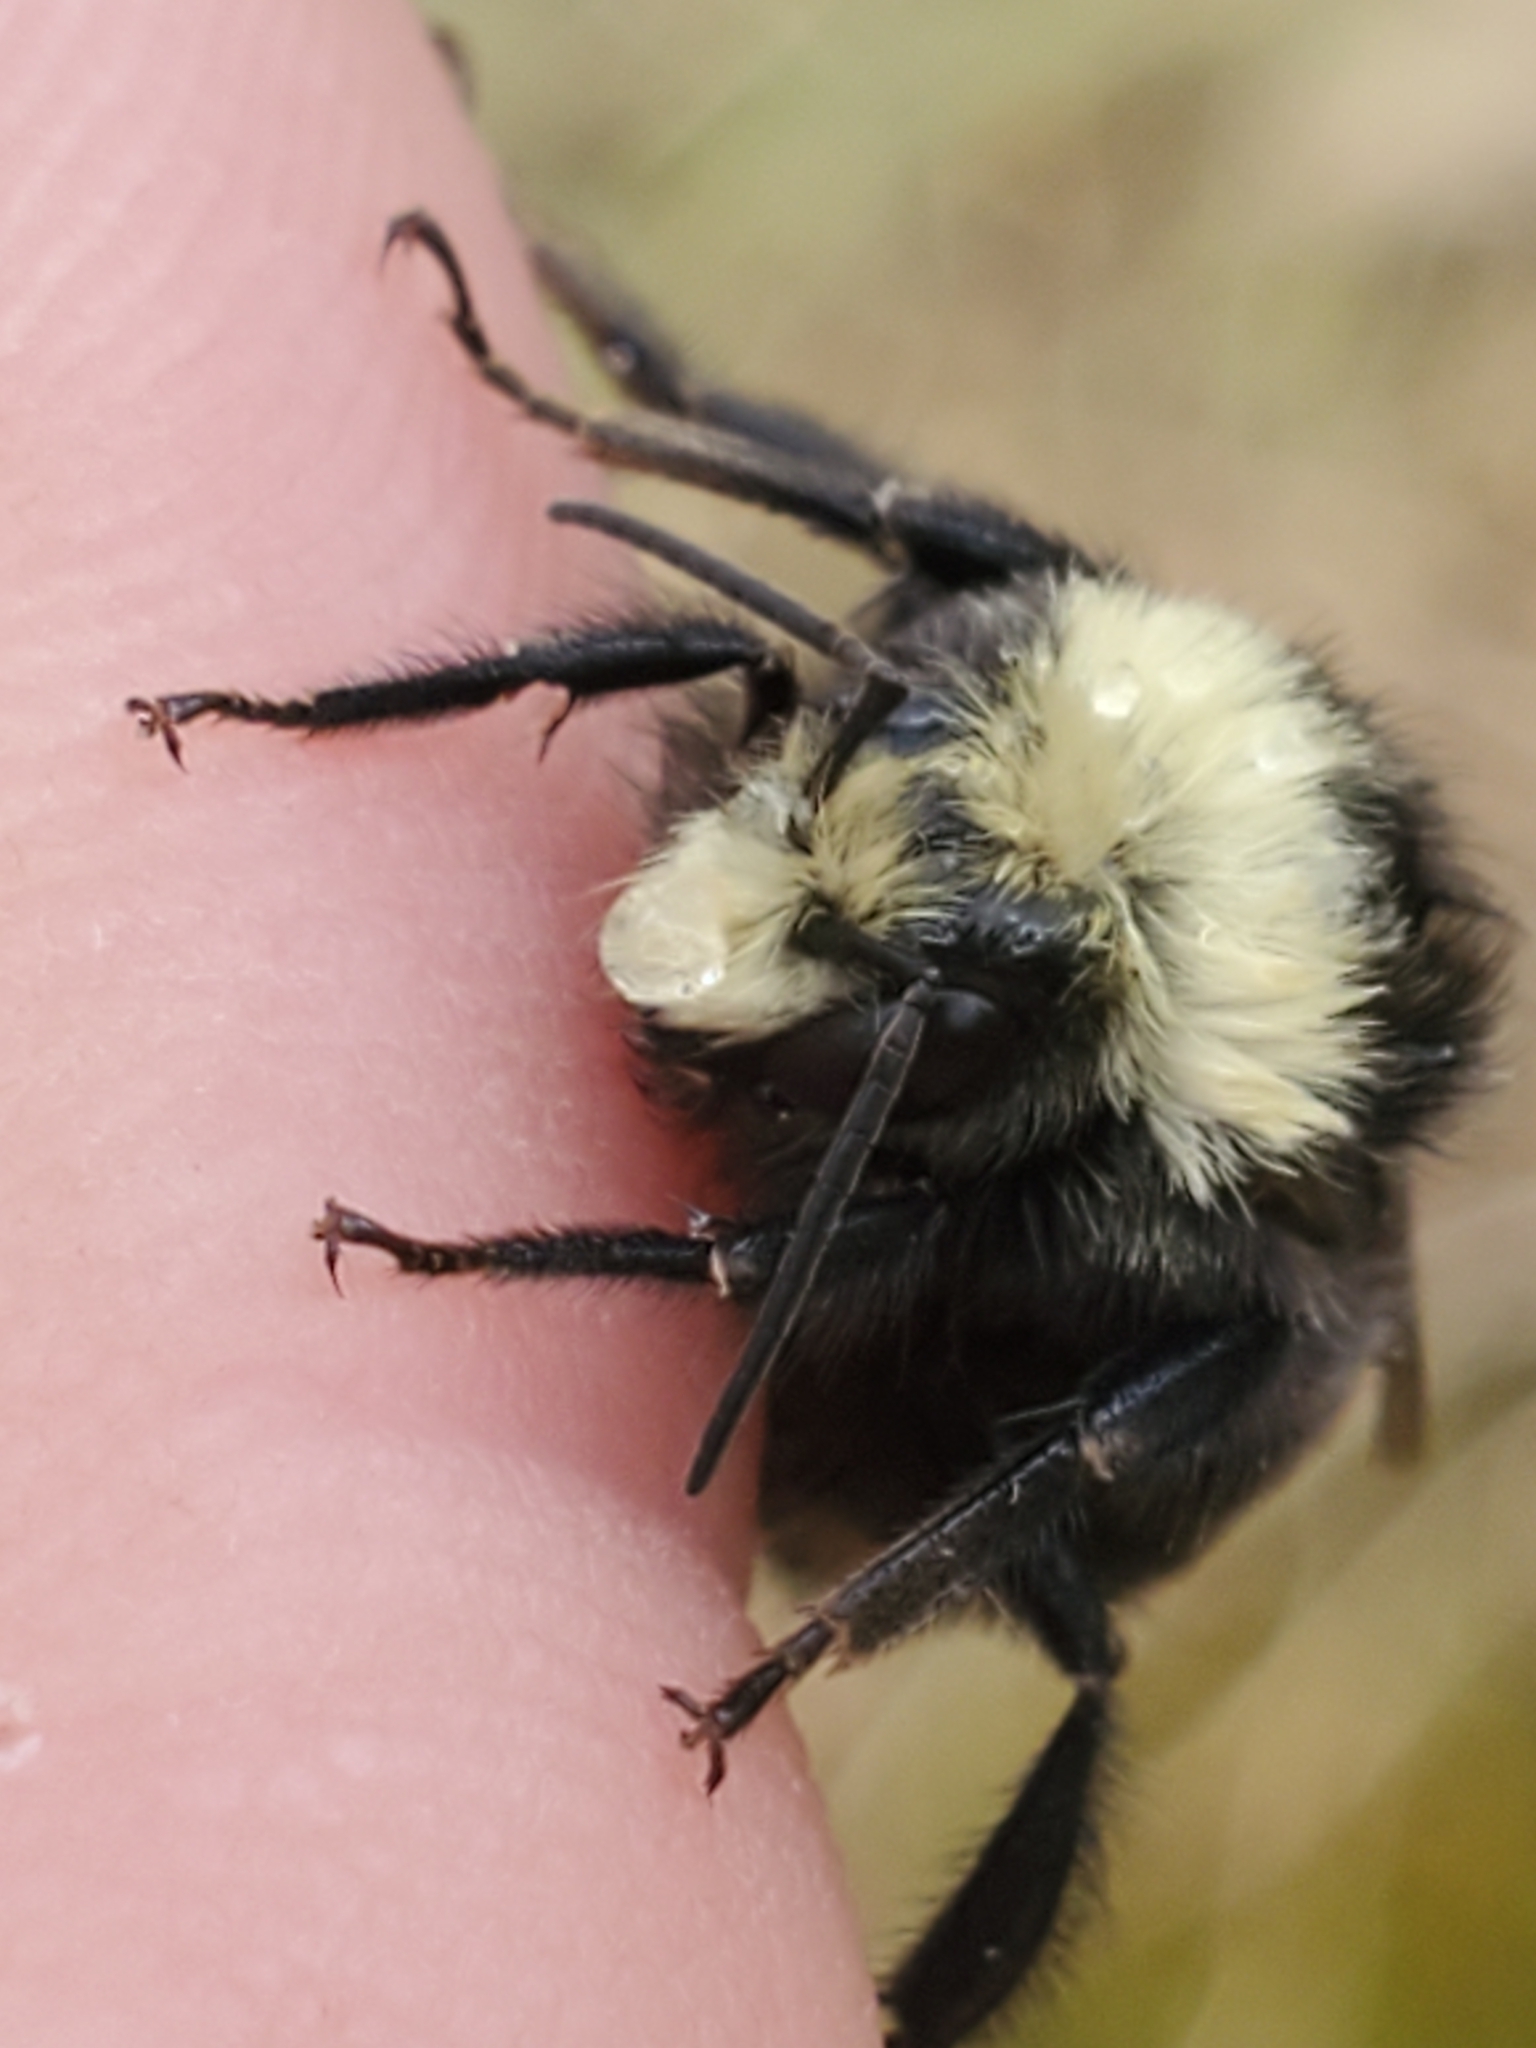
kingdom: Animalia
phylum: Arthropoda
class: Insecta
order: Hymenoptera
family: Apidae
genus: Bombus
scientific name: Bombus vosnesenskii
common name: Vosnesensky bumble bee
